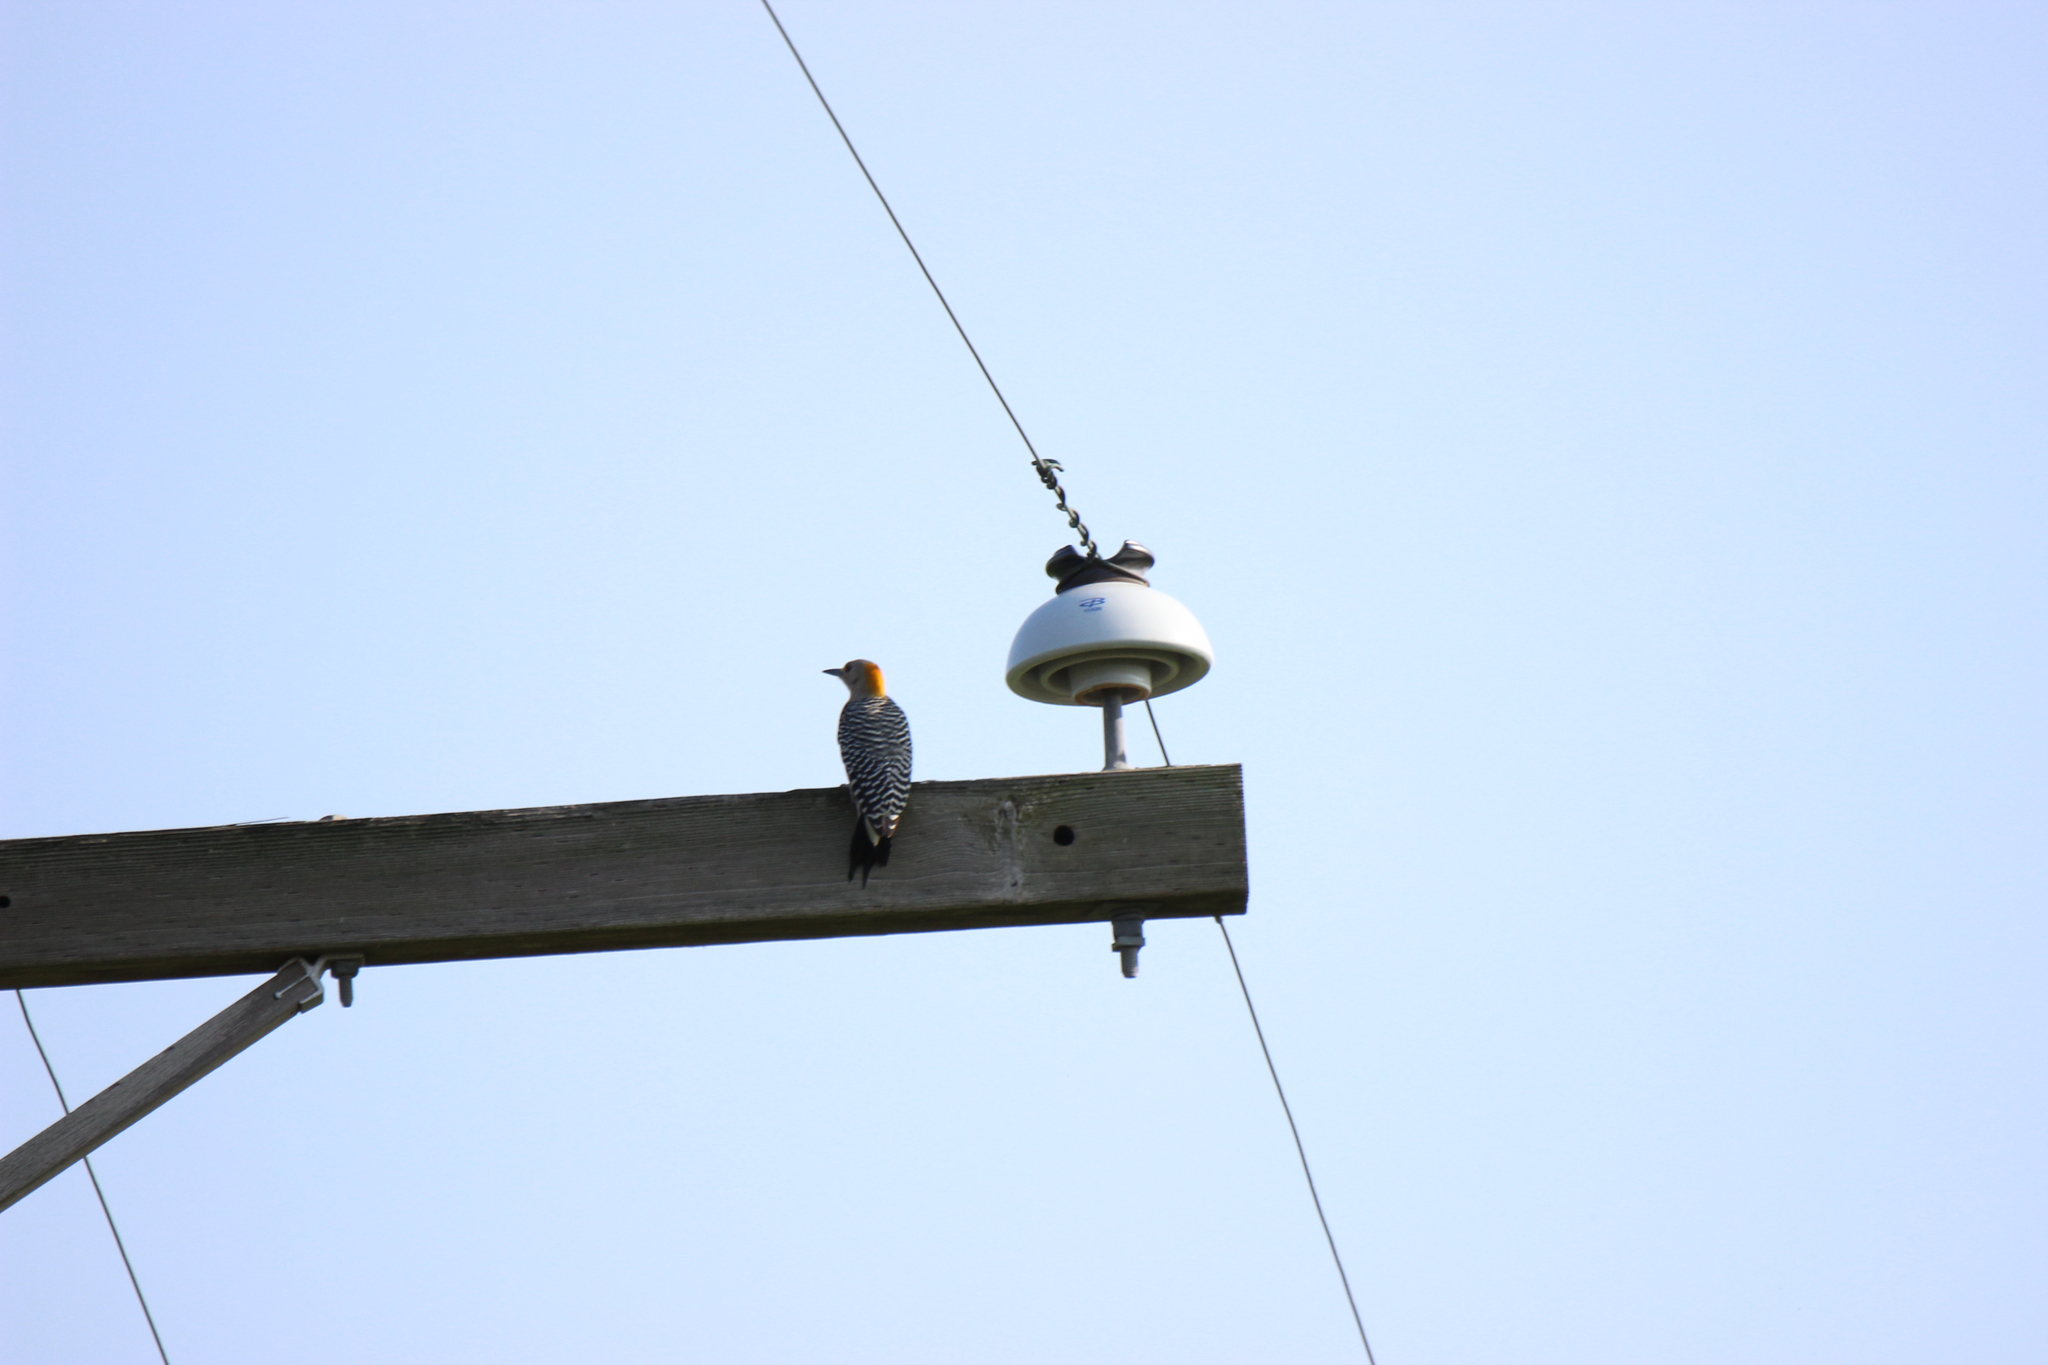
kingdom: Animalia
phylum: Chordata
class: Aves
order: Piciformes
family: Picidae
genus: Melanerpes
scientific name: Melanerpes aurifrons
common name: Golden-fronted woodpecker
